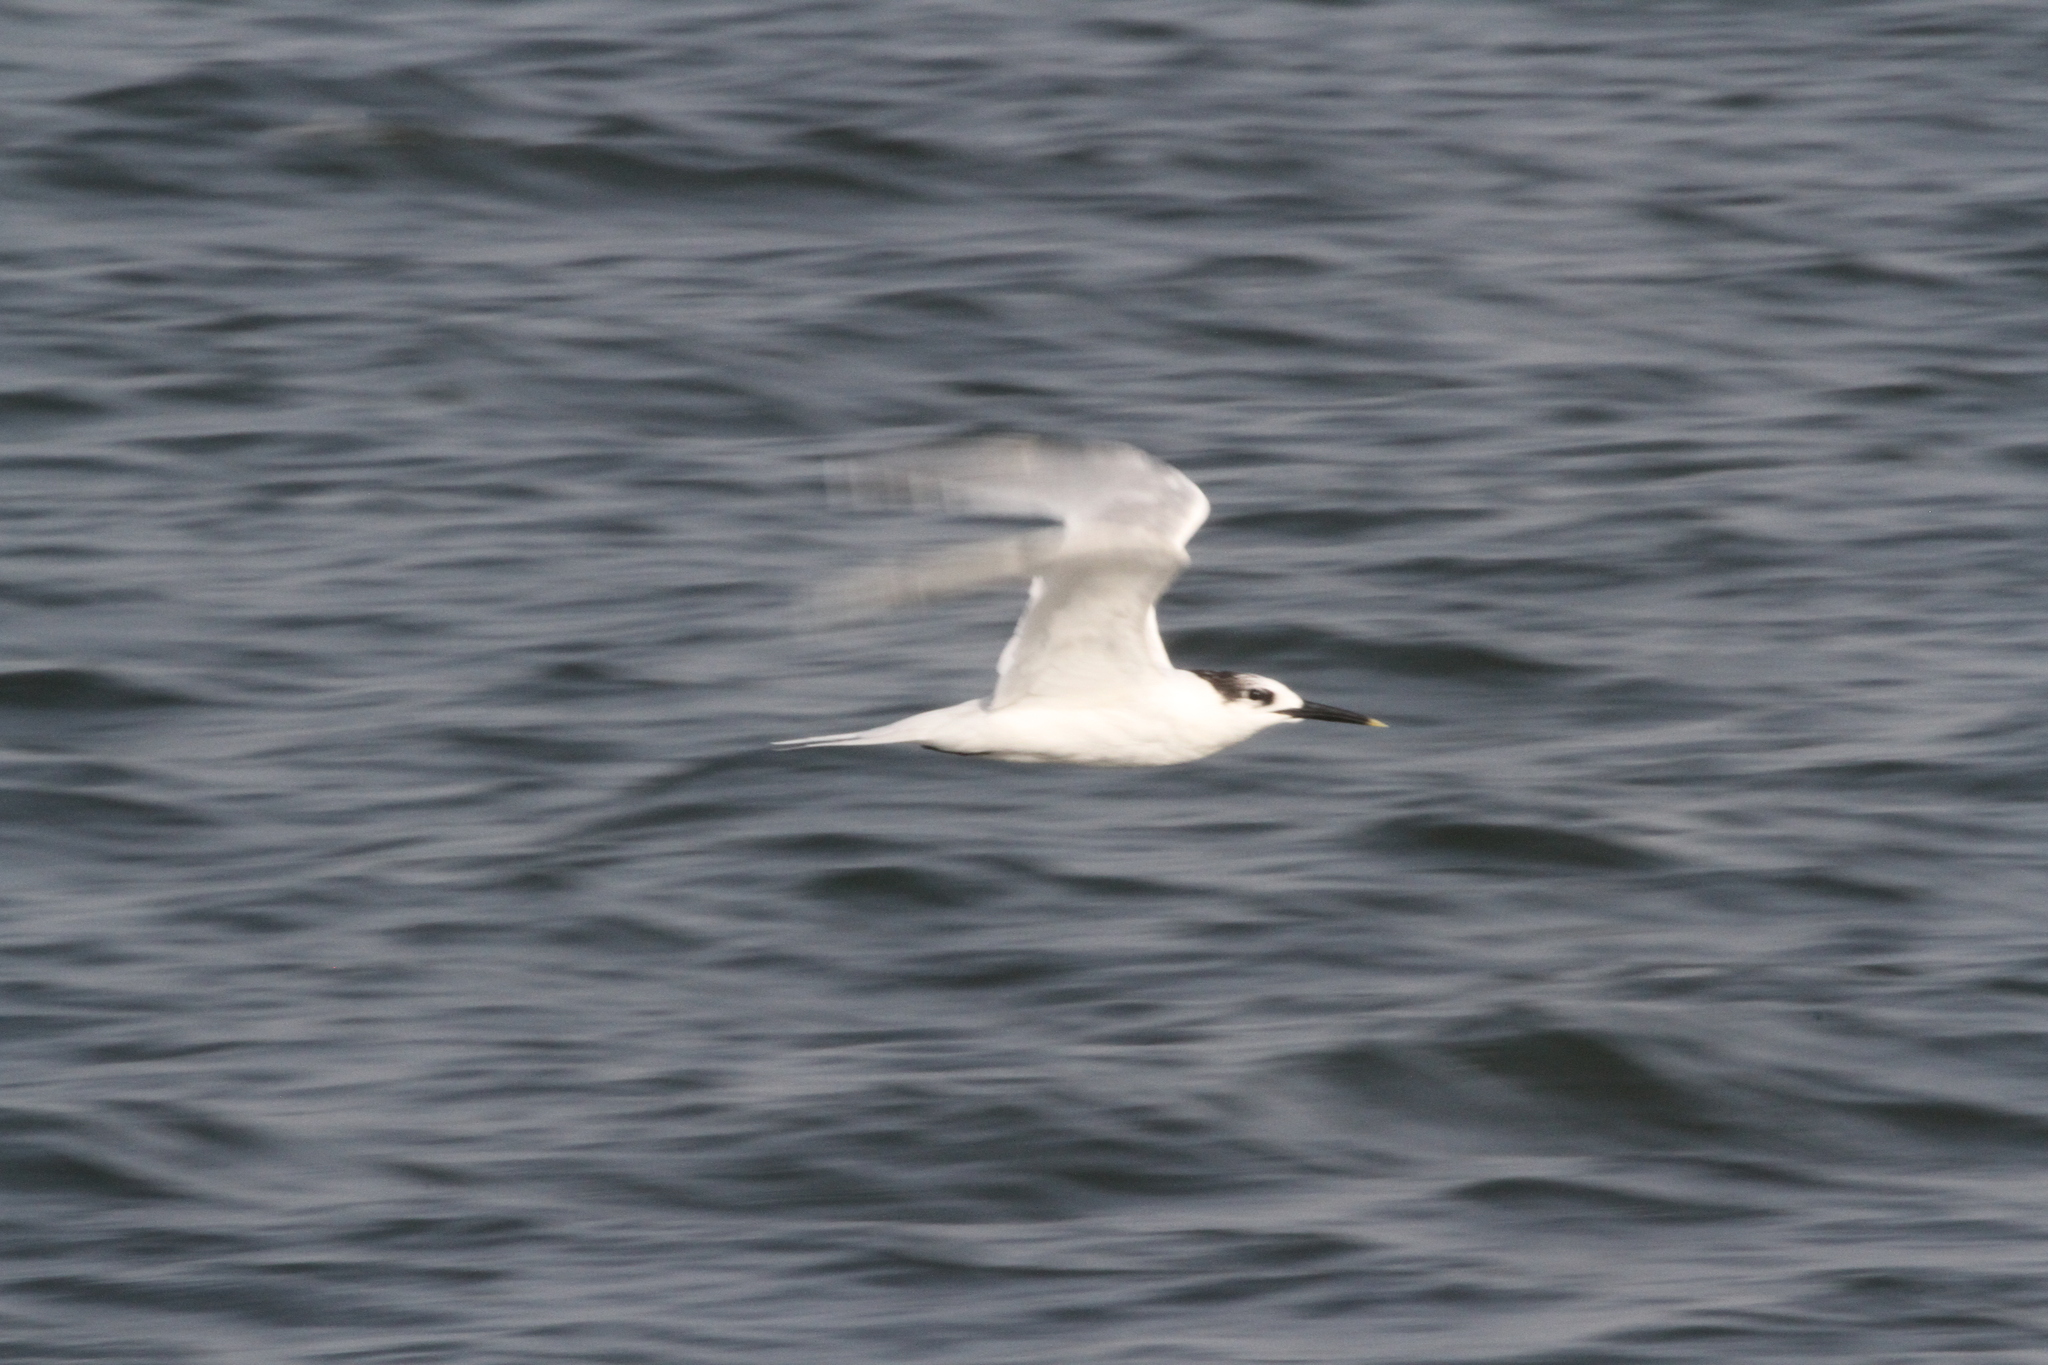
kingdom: Animalia
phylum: Chordata
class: Aves
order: Charadriiformes
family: Laridae
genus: Thalasseus
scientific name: Thalasseus sandvicensis
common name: Sandwich tern
